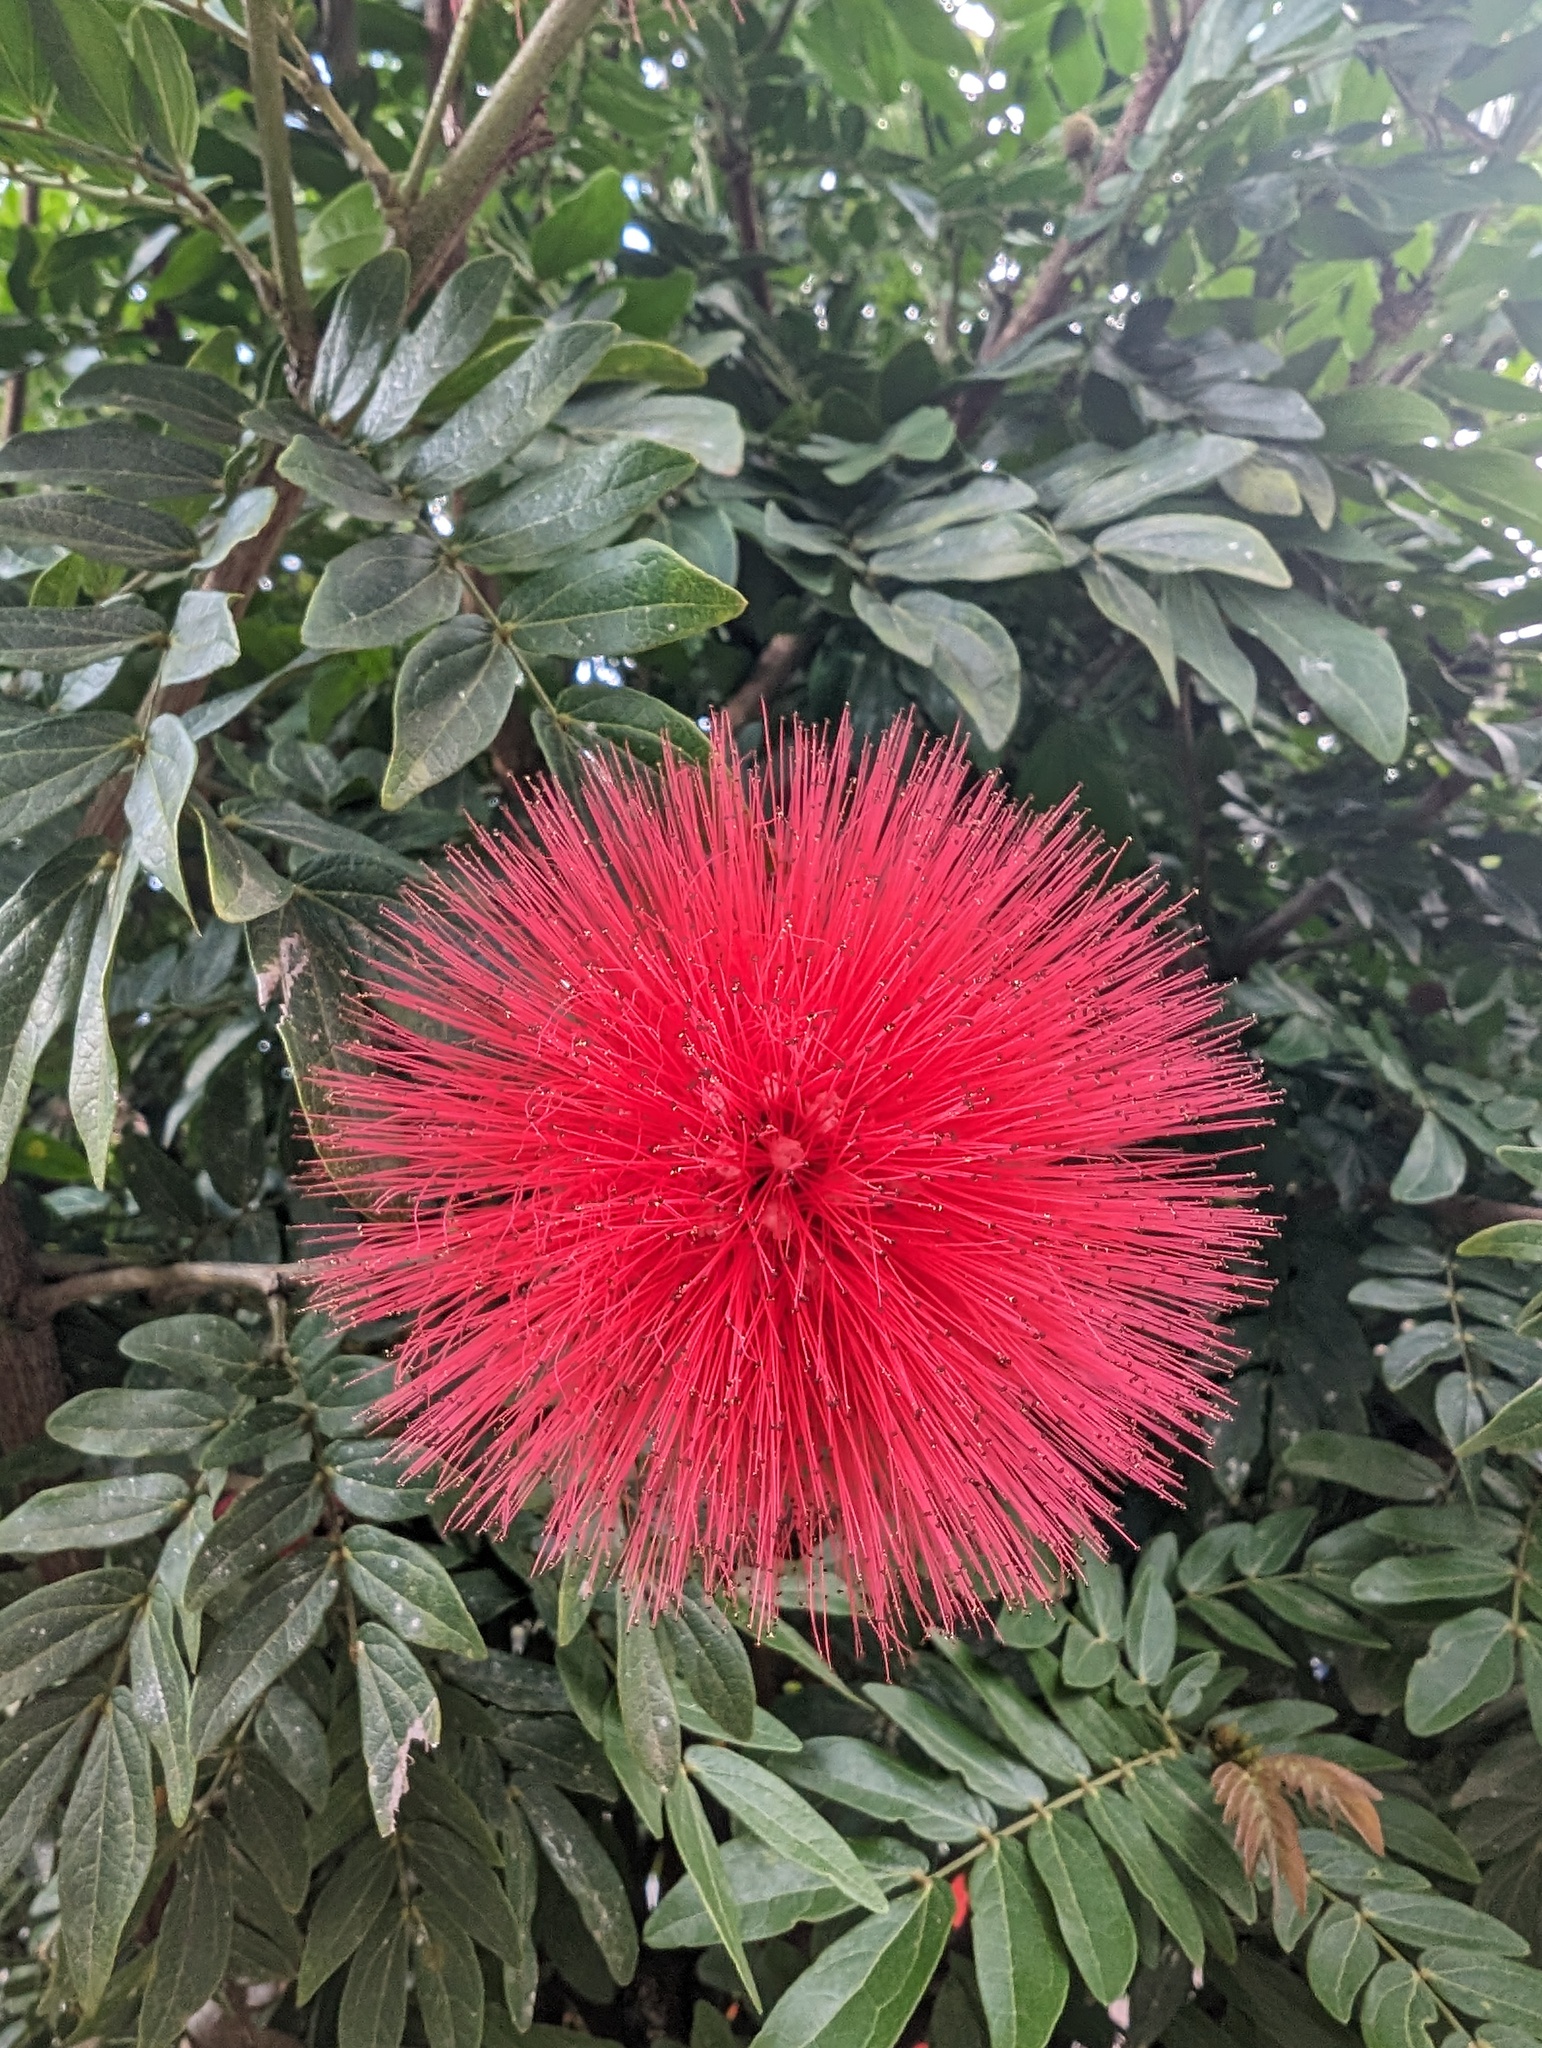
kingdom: Plantae
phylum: Tracheophyta
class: Magnoliopsida
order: Fabales
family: Fabaceae
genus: Calliandra
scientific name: Calliandra haematocephala
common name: Blood red tassel flower
